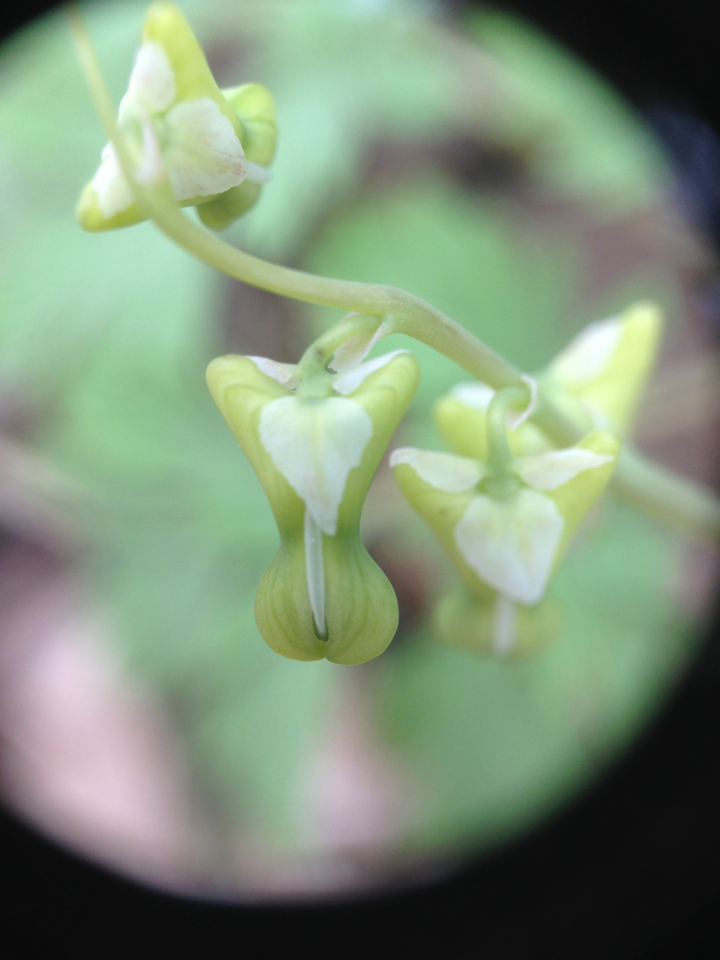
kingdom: Plantae
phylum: Tracheophyta
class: Magnoliopsida
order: Ranunculales
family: Papaveraceae
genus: Dicentra
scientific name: Dicentra canadensis
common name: Squirrel-corn
